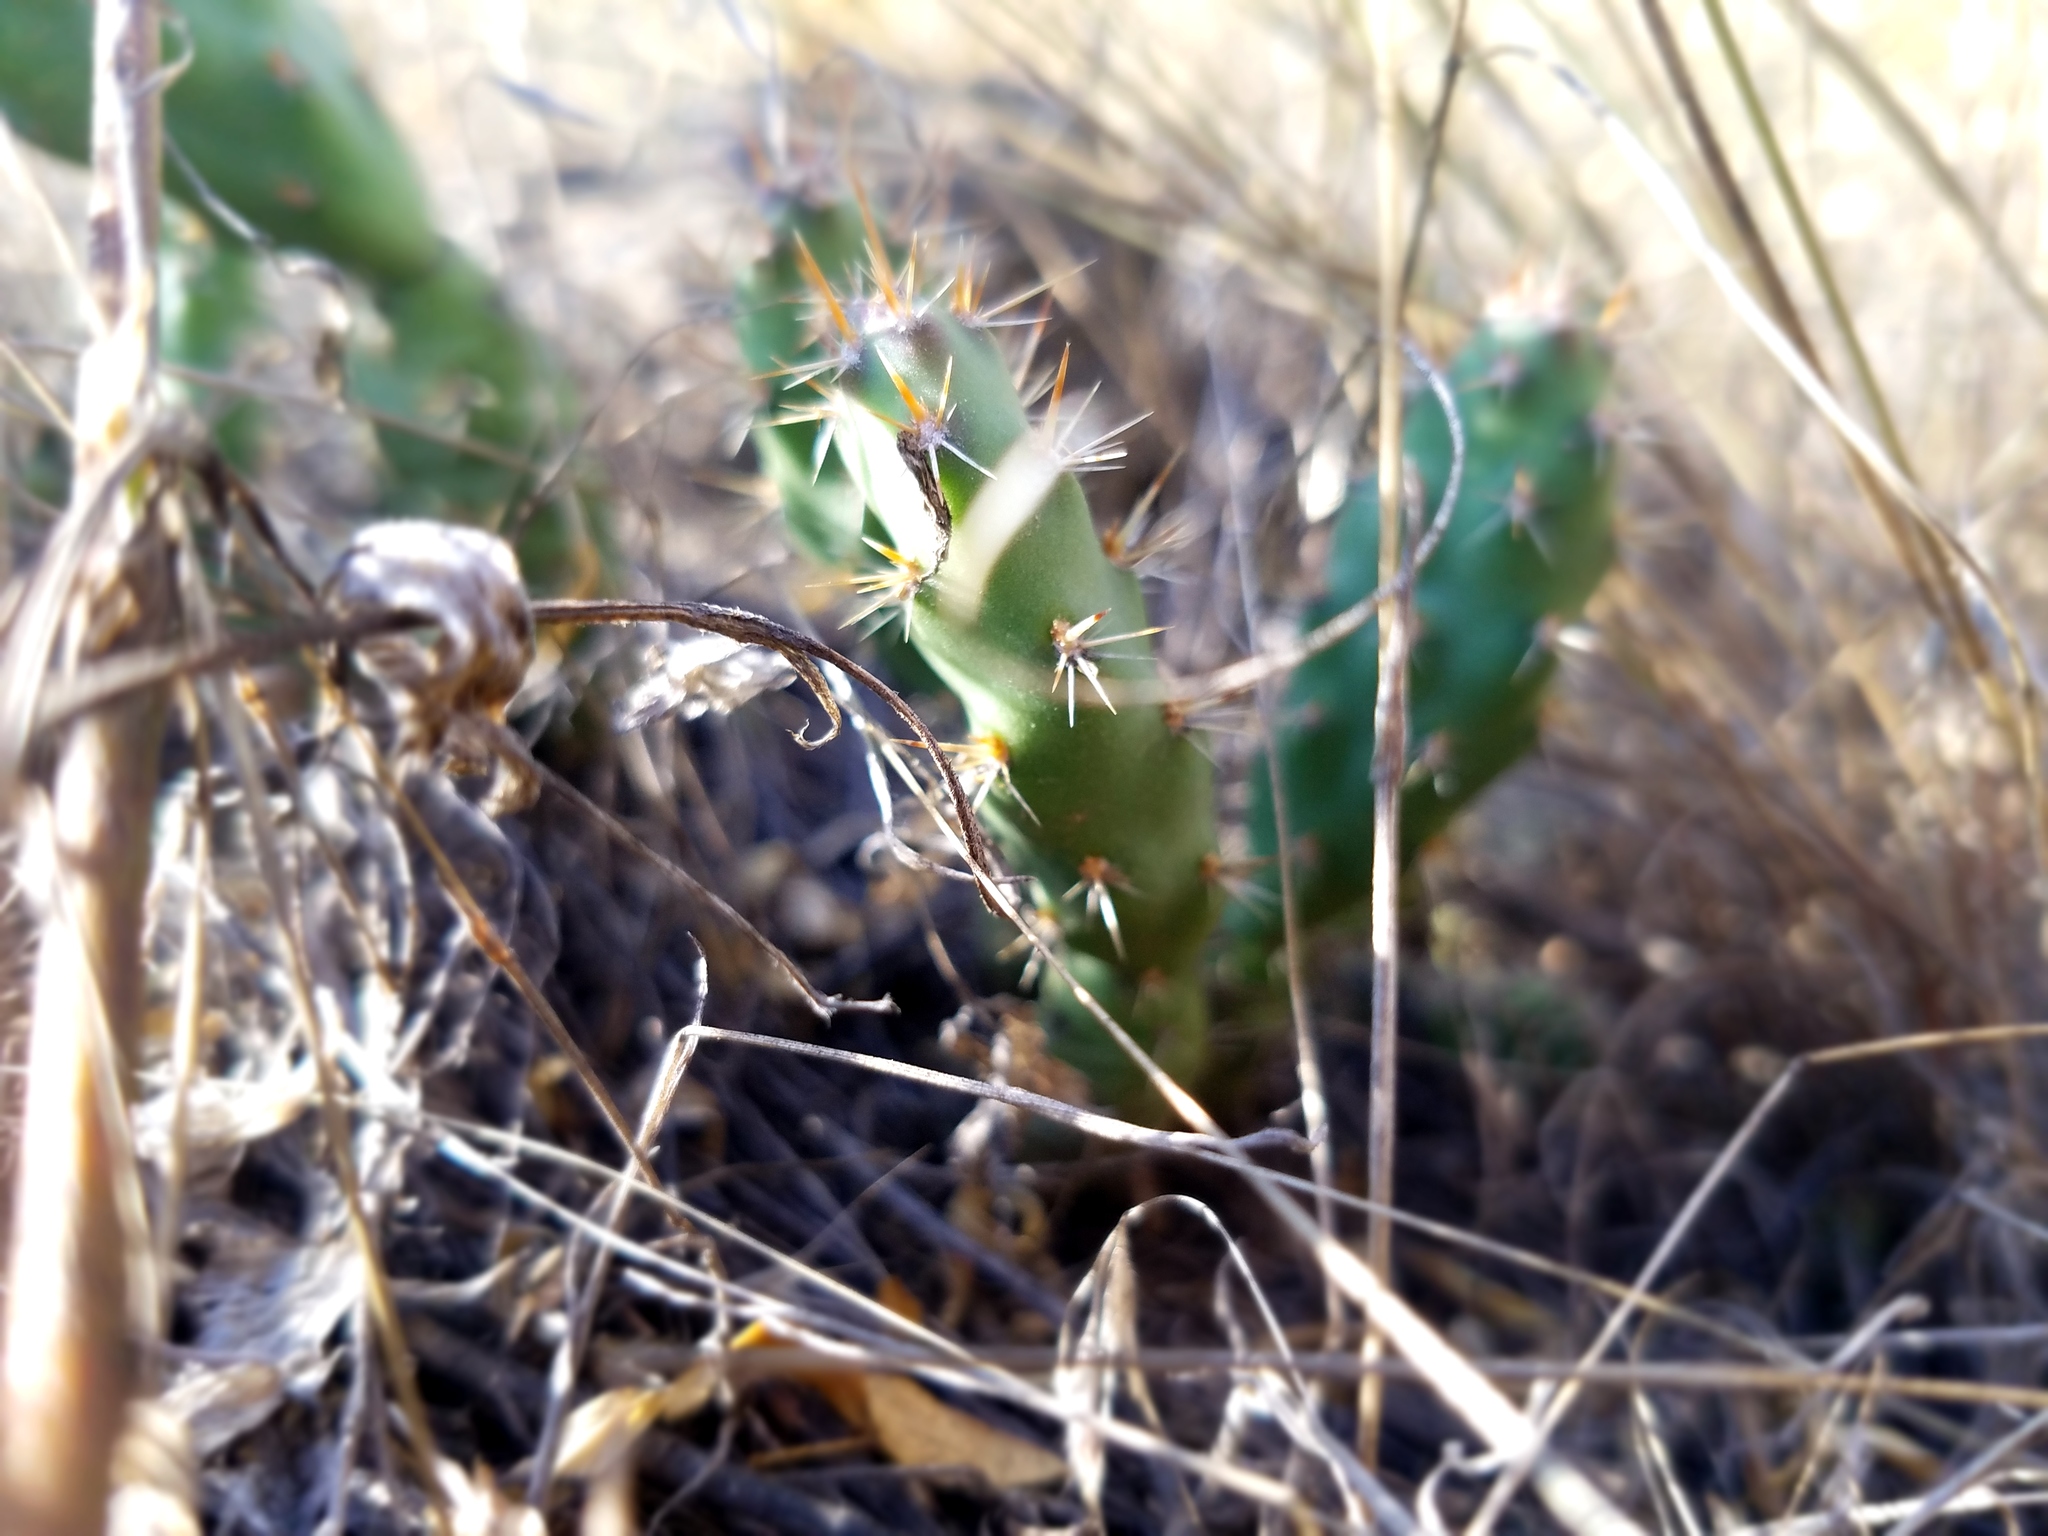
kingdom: Plantae
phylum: Tracheophyta
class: Magnoliopsida
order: Caryophyllales
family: Cactaceae
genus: Opuntia
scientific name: Opuntia fragilis
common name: Brittle cactus
